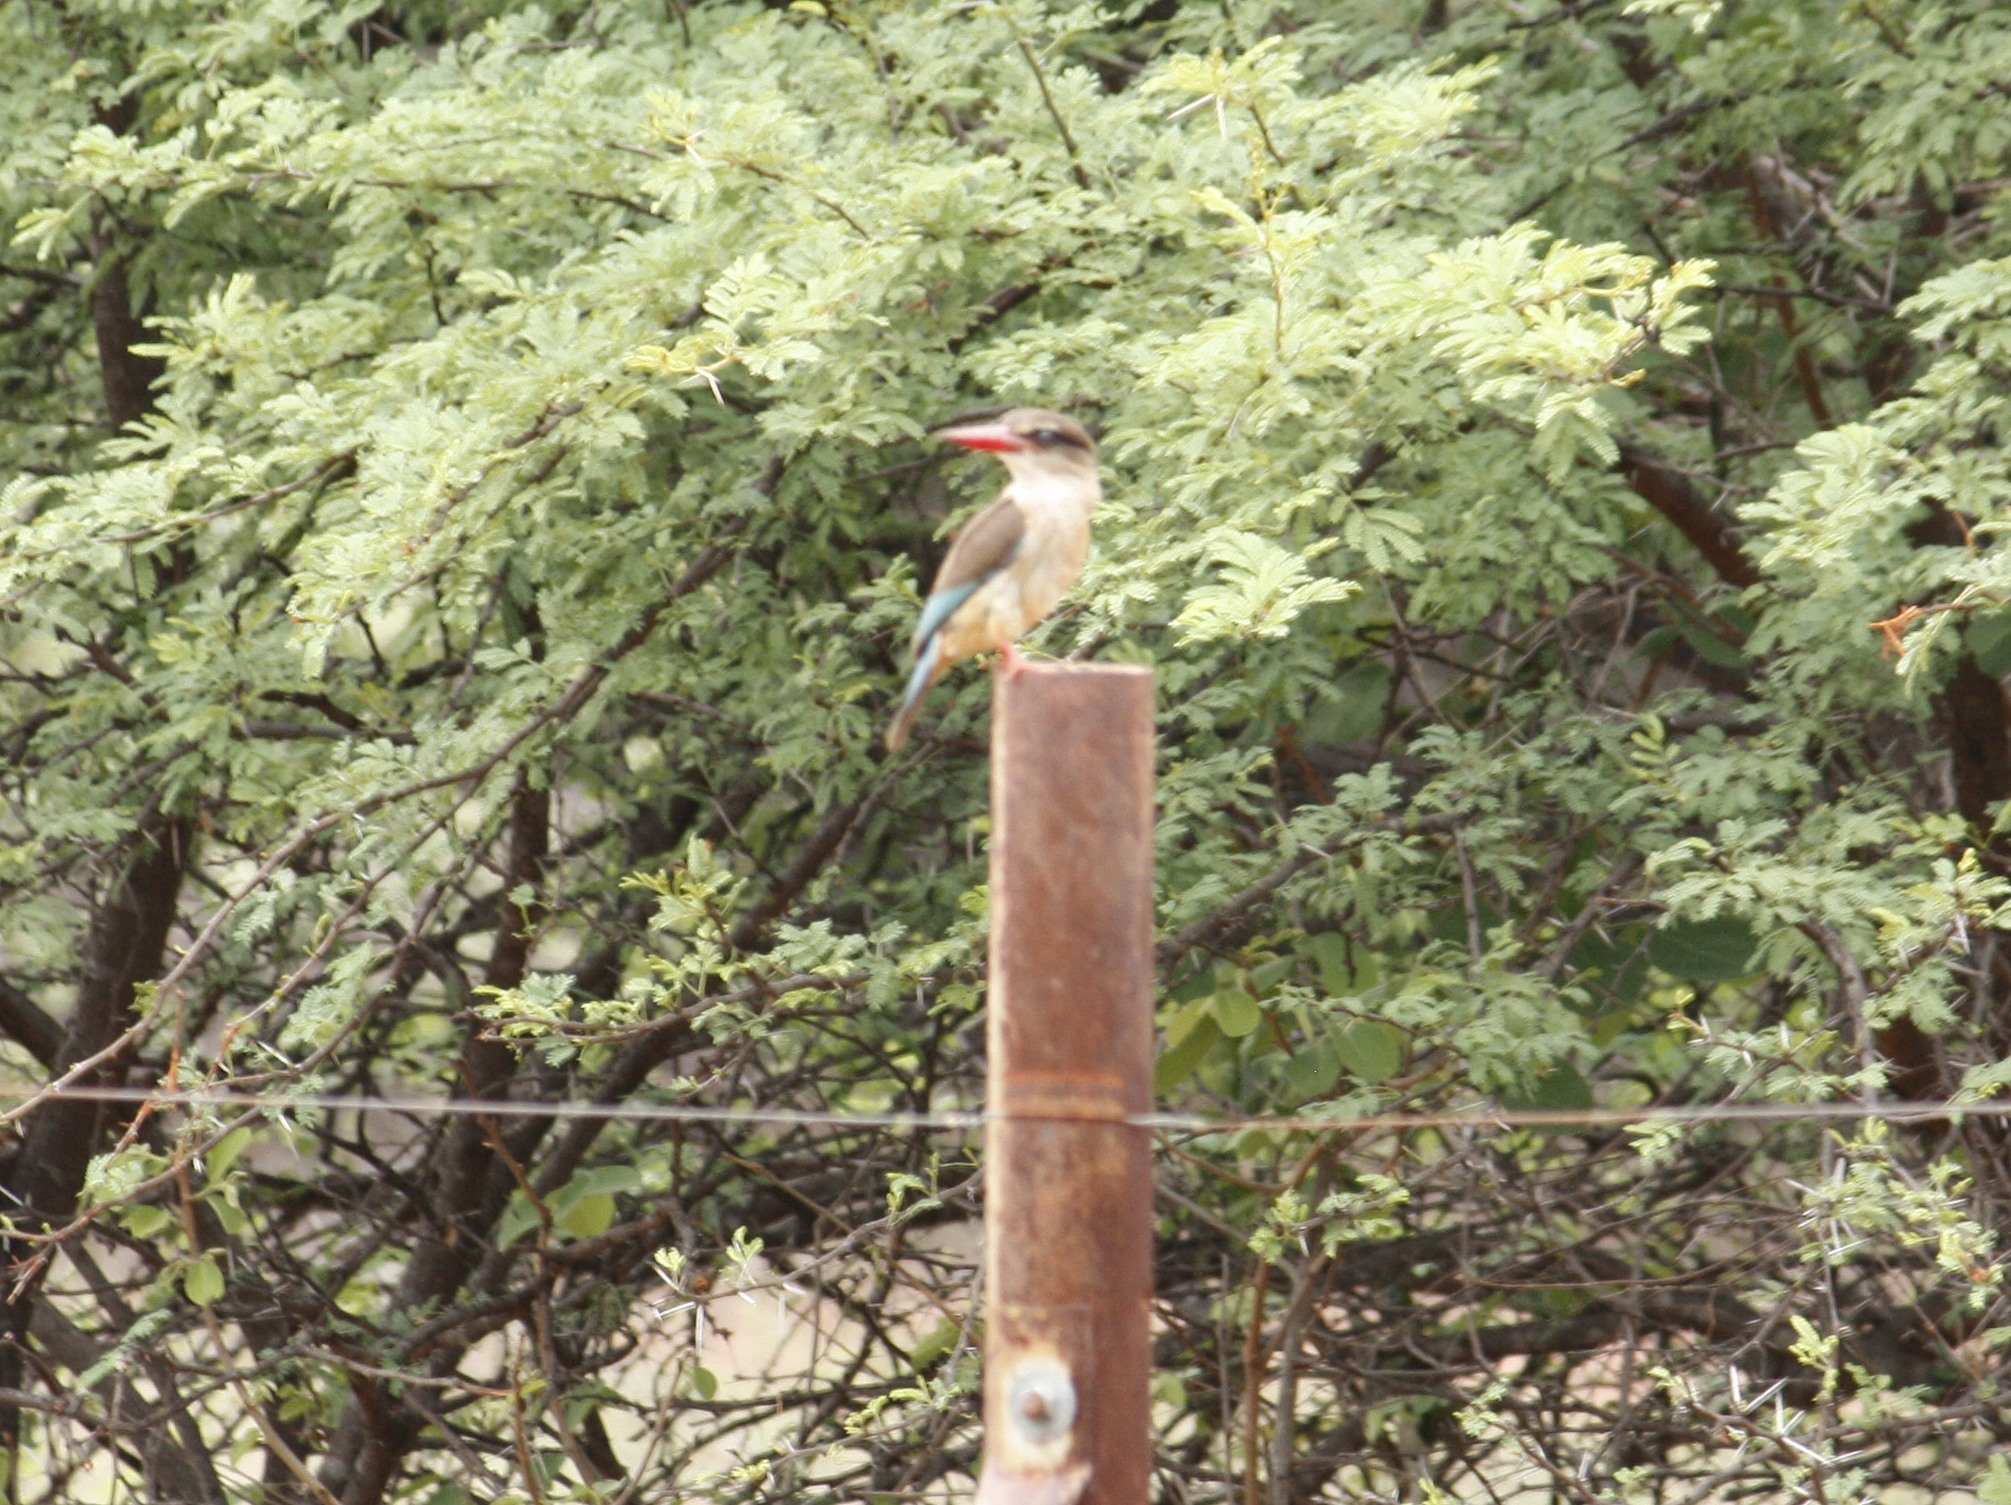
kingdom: Animalia
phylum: Chordata
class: Aves
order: Coraciiformes
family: Alcedinidae
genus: Halcyon
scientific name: Halcyon albiventris
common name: Brown-hooded kingfisher
